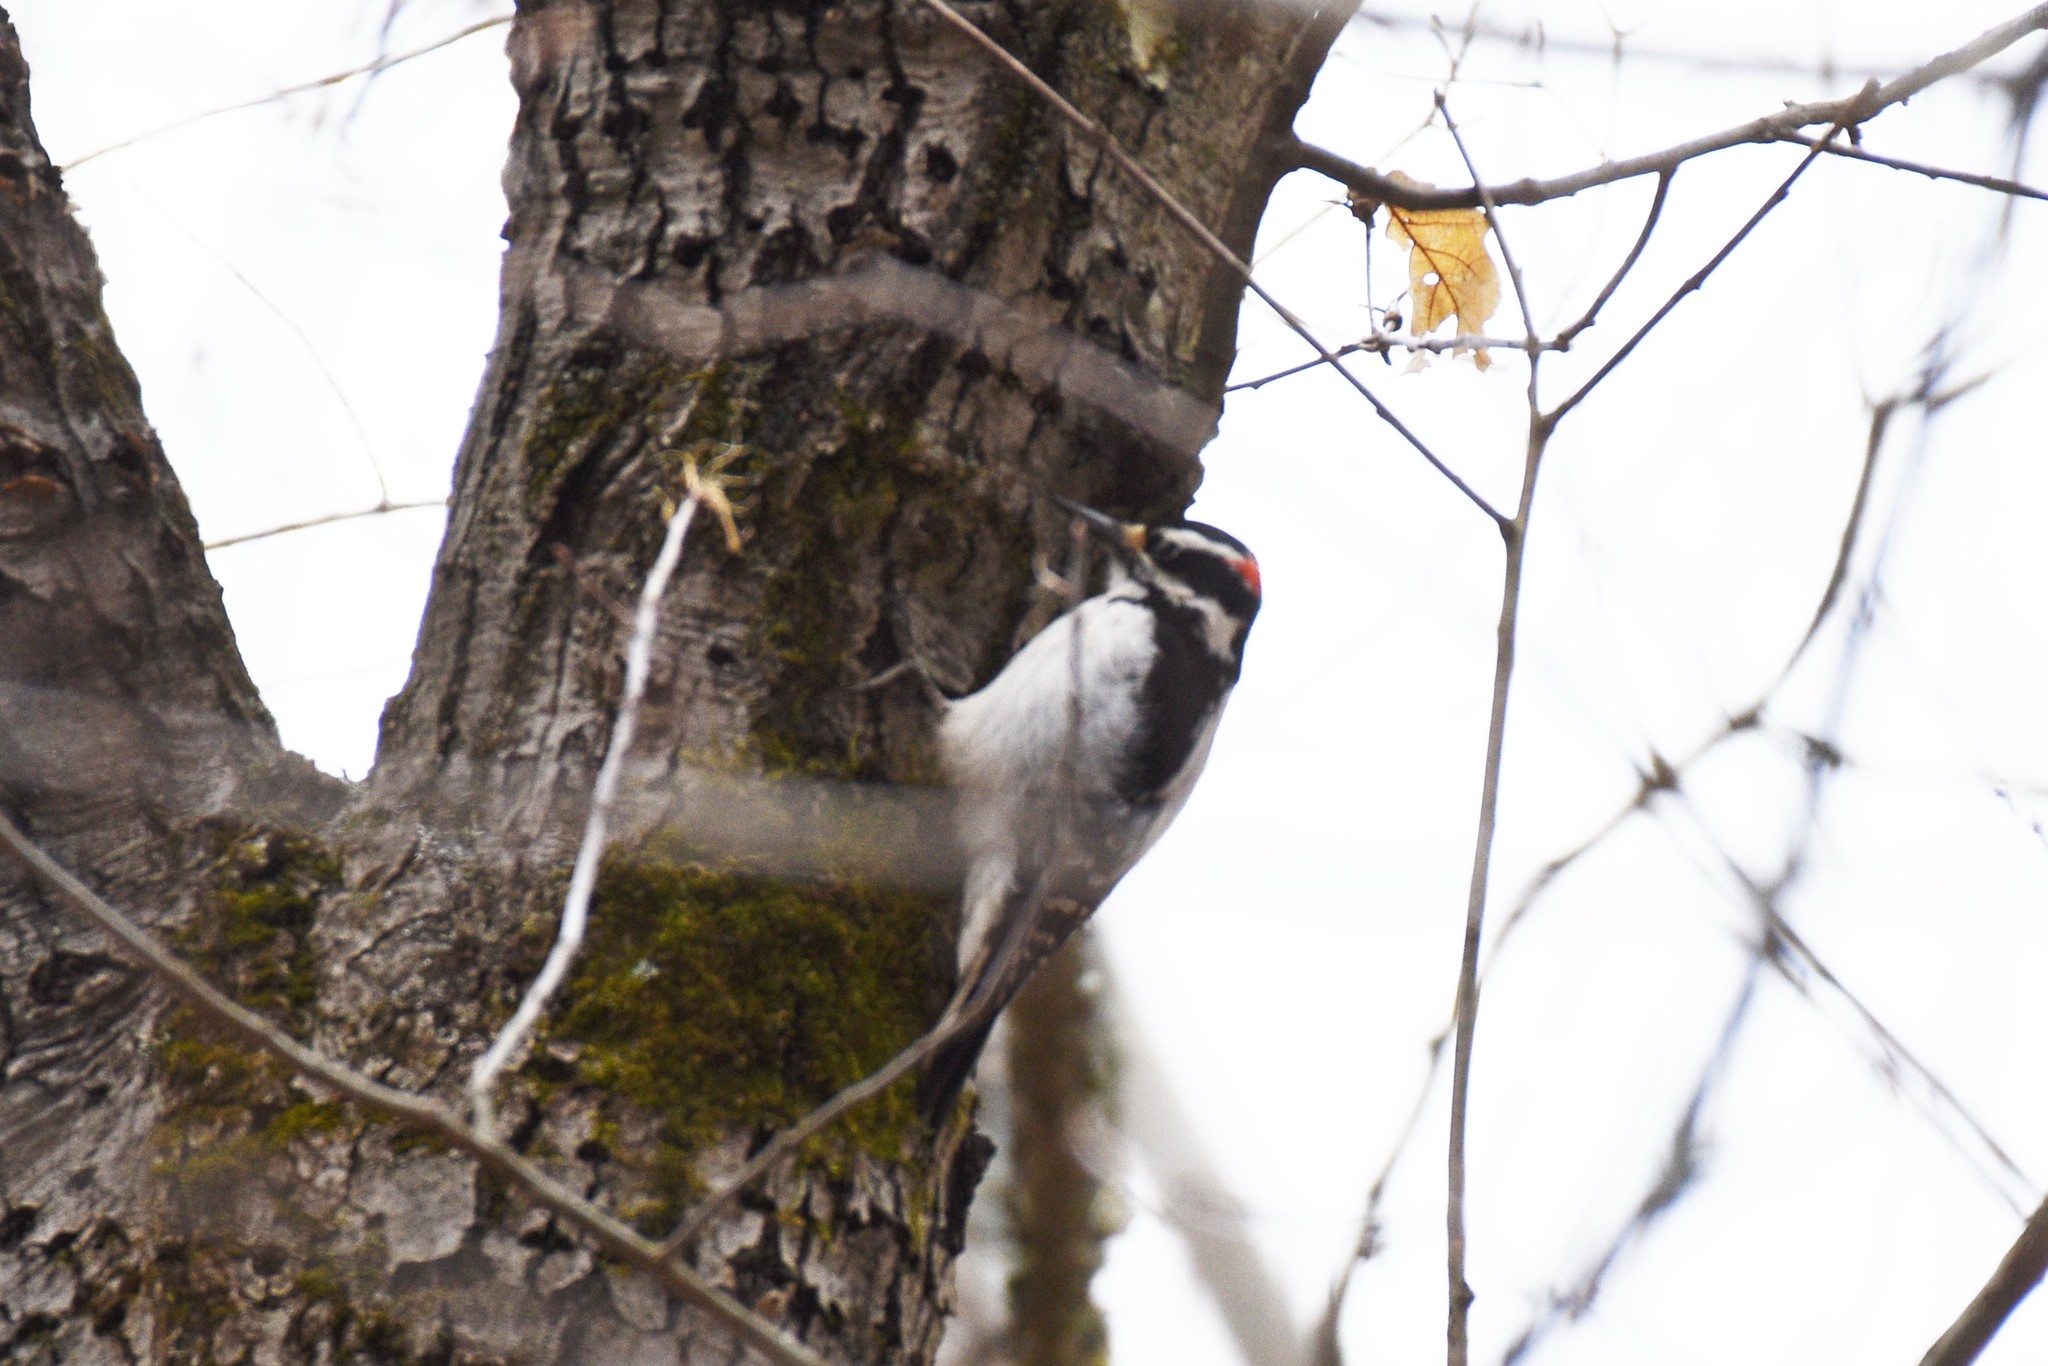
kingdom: Animalia
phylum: Chordata
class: Aves
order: Piciformes
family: Picidae
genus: Leuconotopicus
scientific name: Leuconotopicus villosus
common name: Hairy woodpecker
